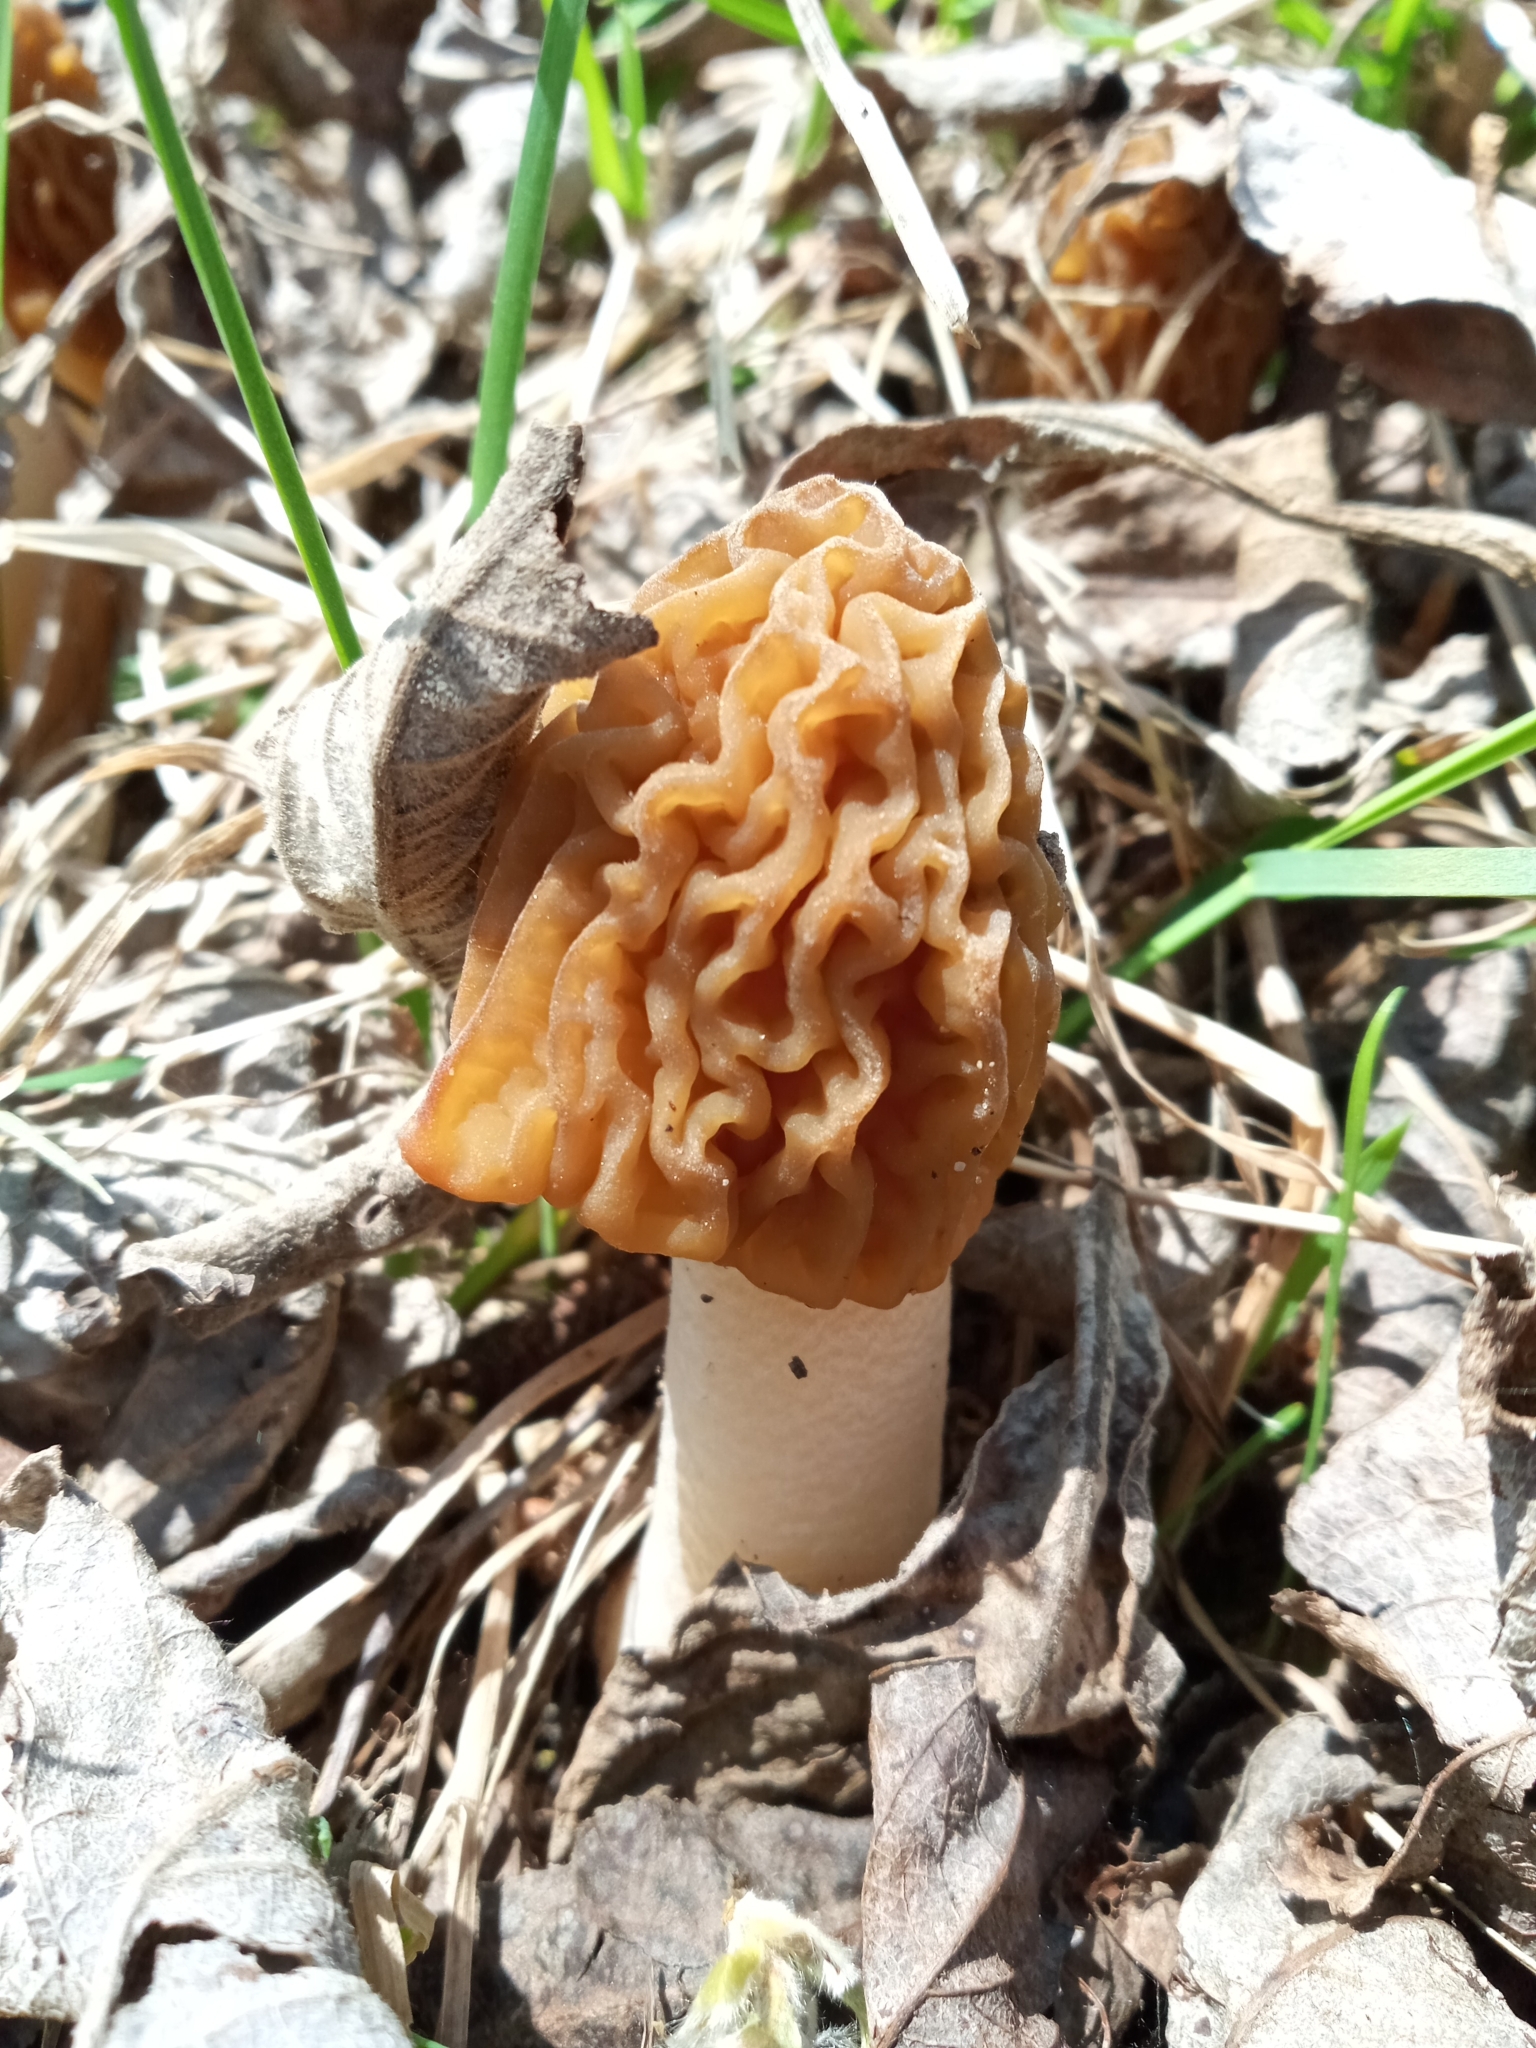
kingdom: Fungi
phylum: Ascomycota
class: Pezizomycetes
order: Pezizales
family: Morchellaceae
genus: Verpa
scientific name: Verpa bohemica
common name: Wrinkled thimble morel
